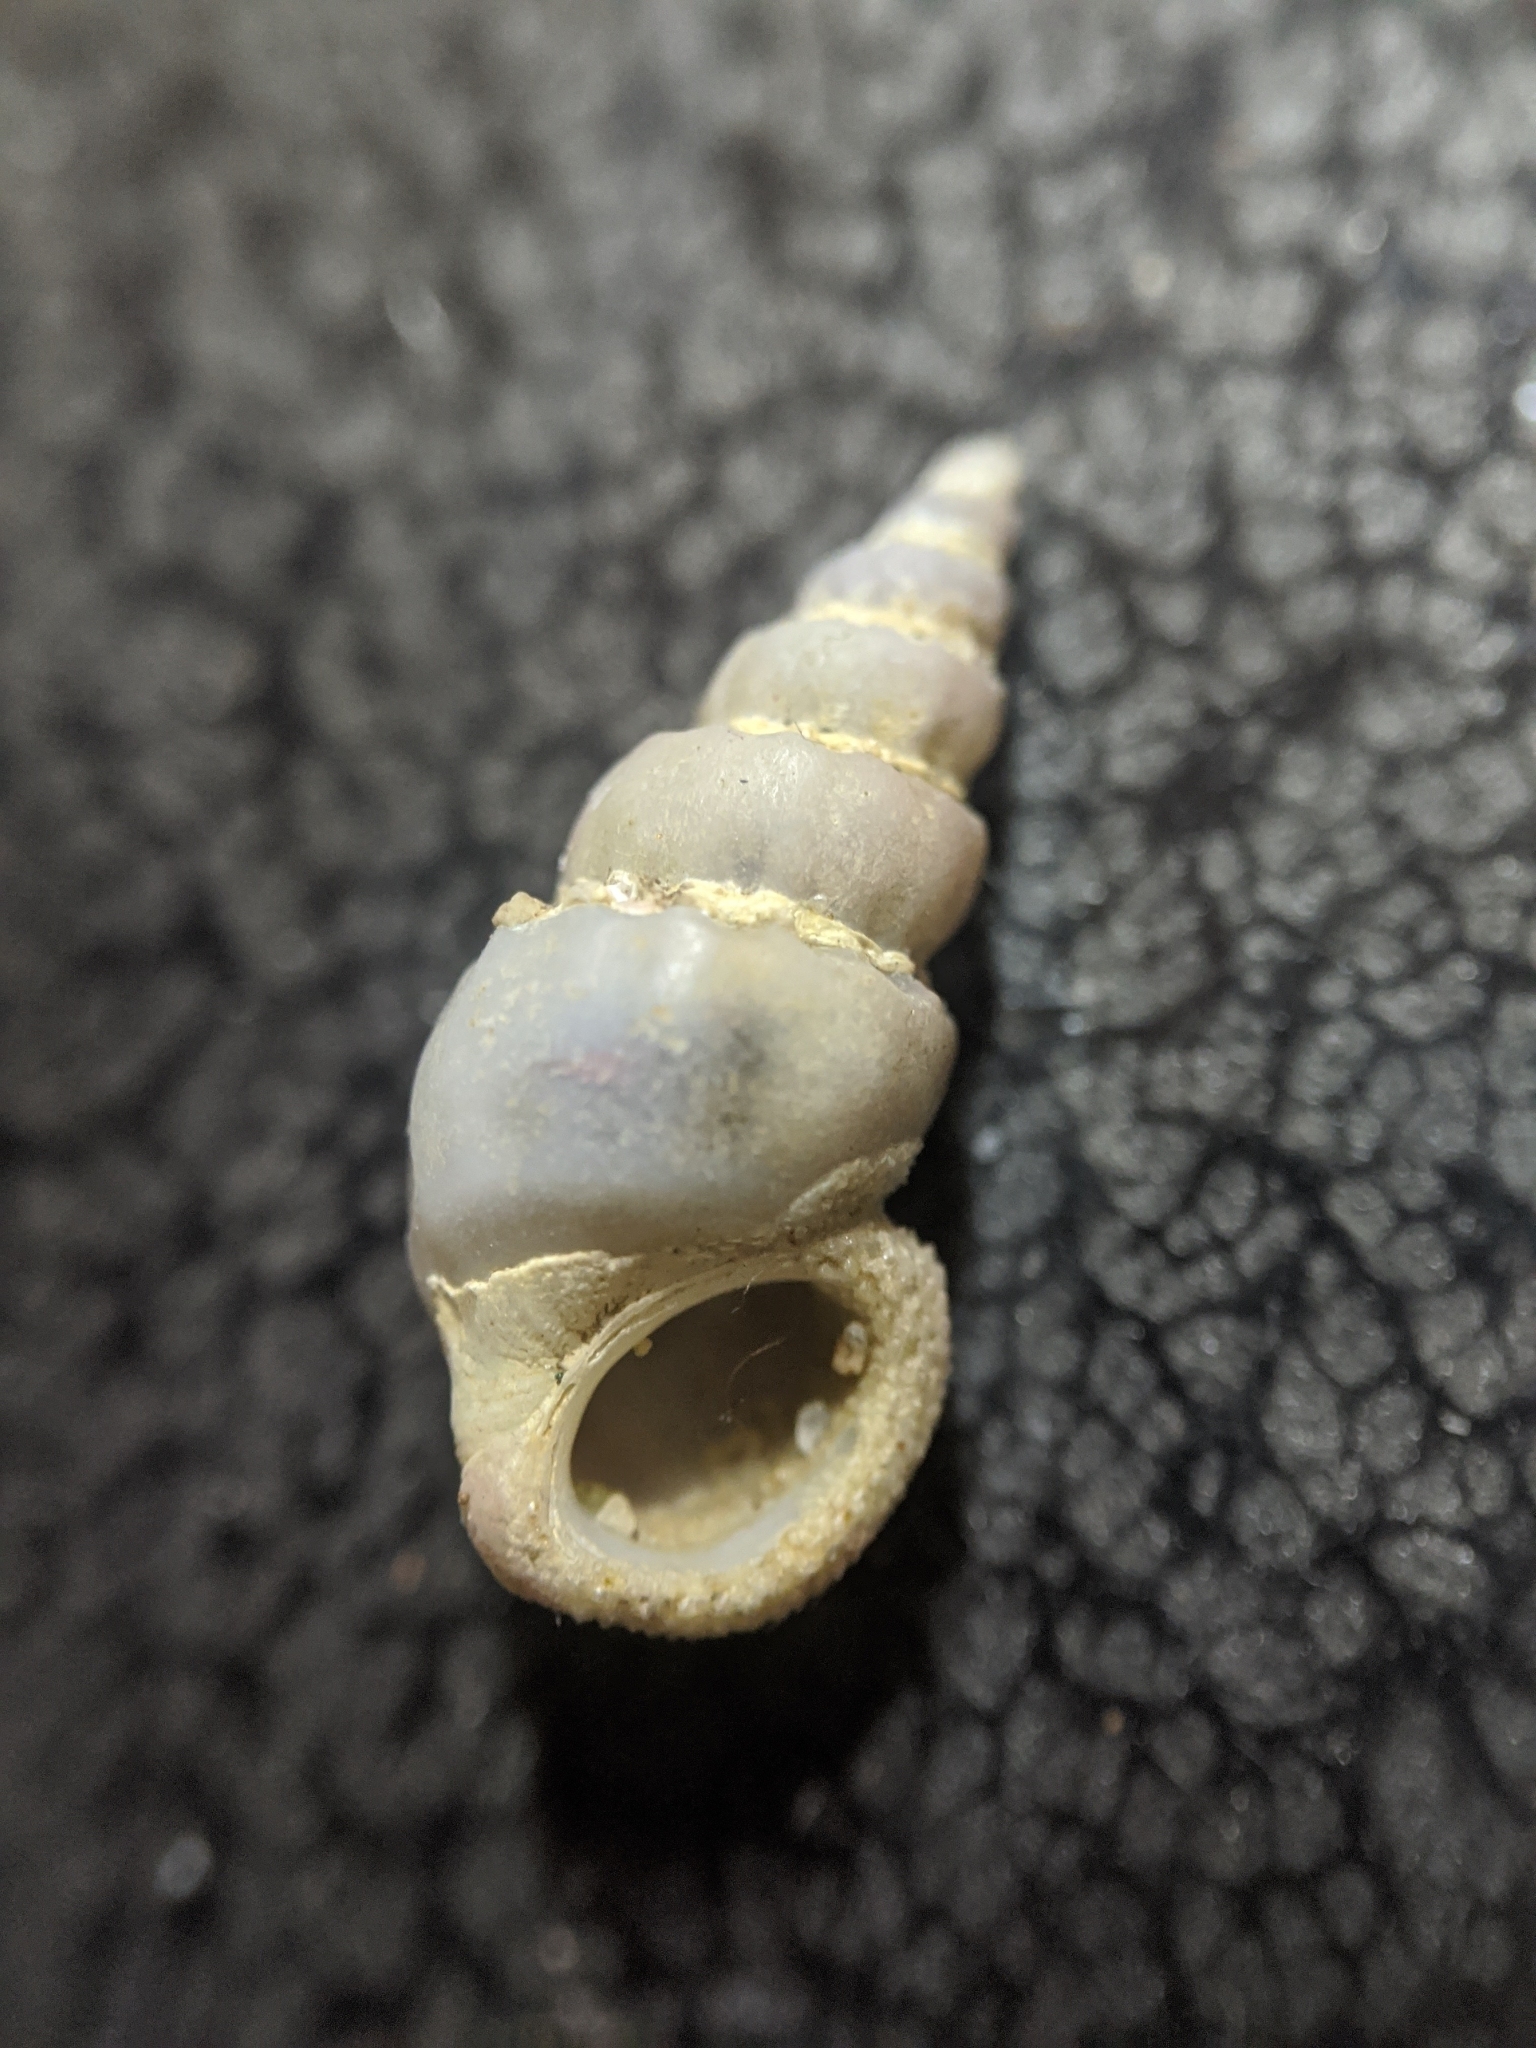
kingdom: Animalia
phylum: Mollusca
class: Gastropoda
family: Epitoniidae
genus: Opalia
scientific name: Opalia funiculata
